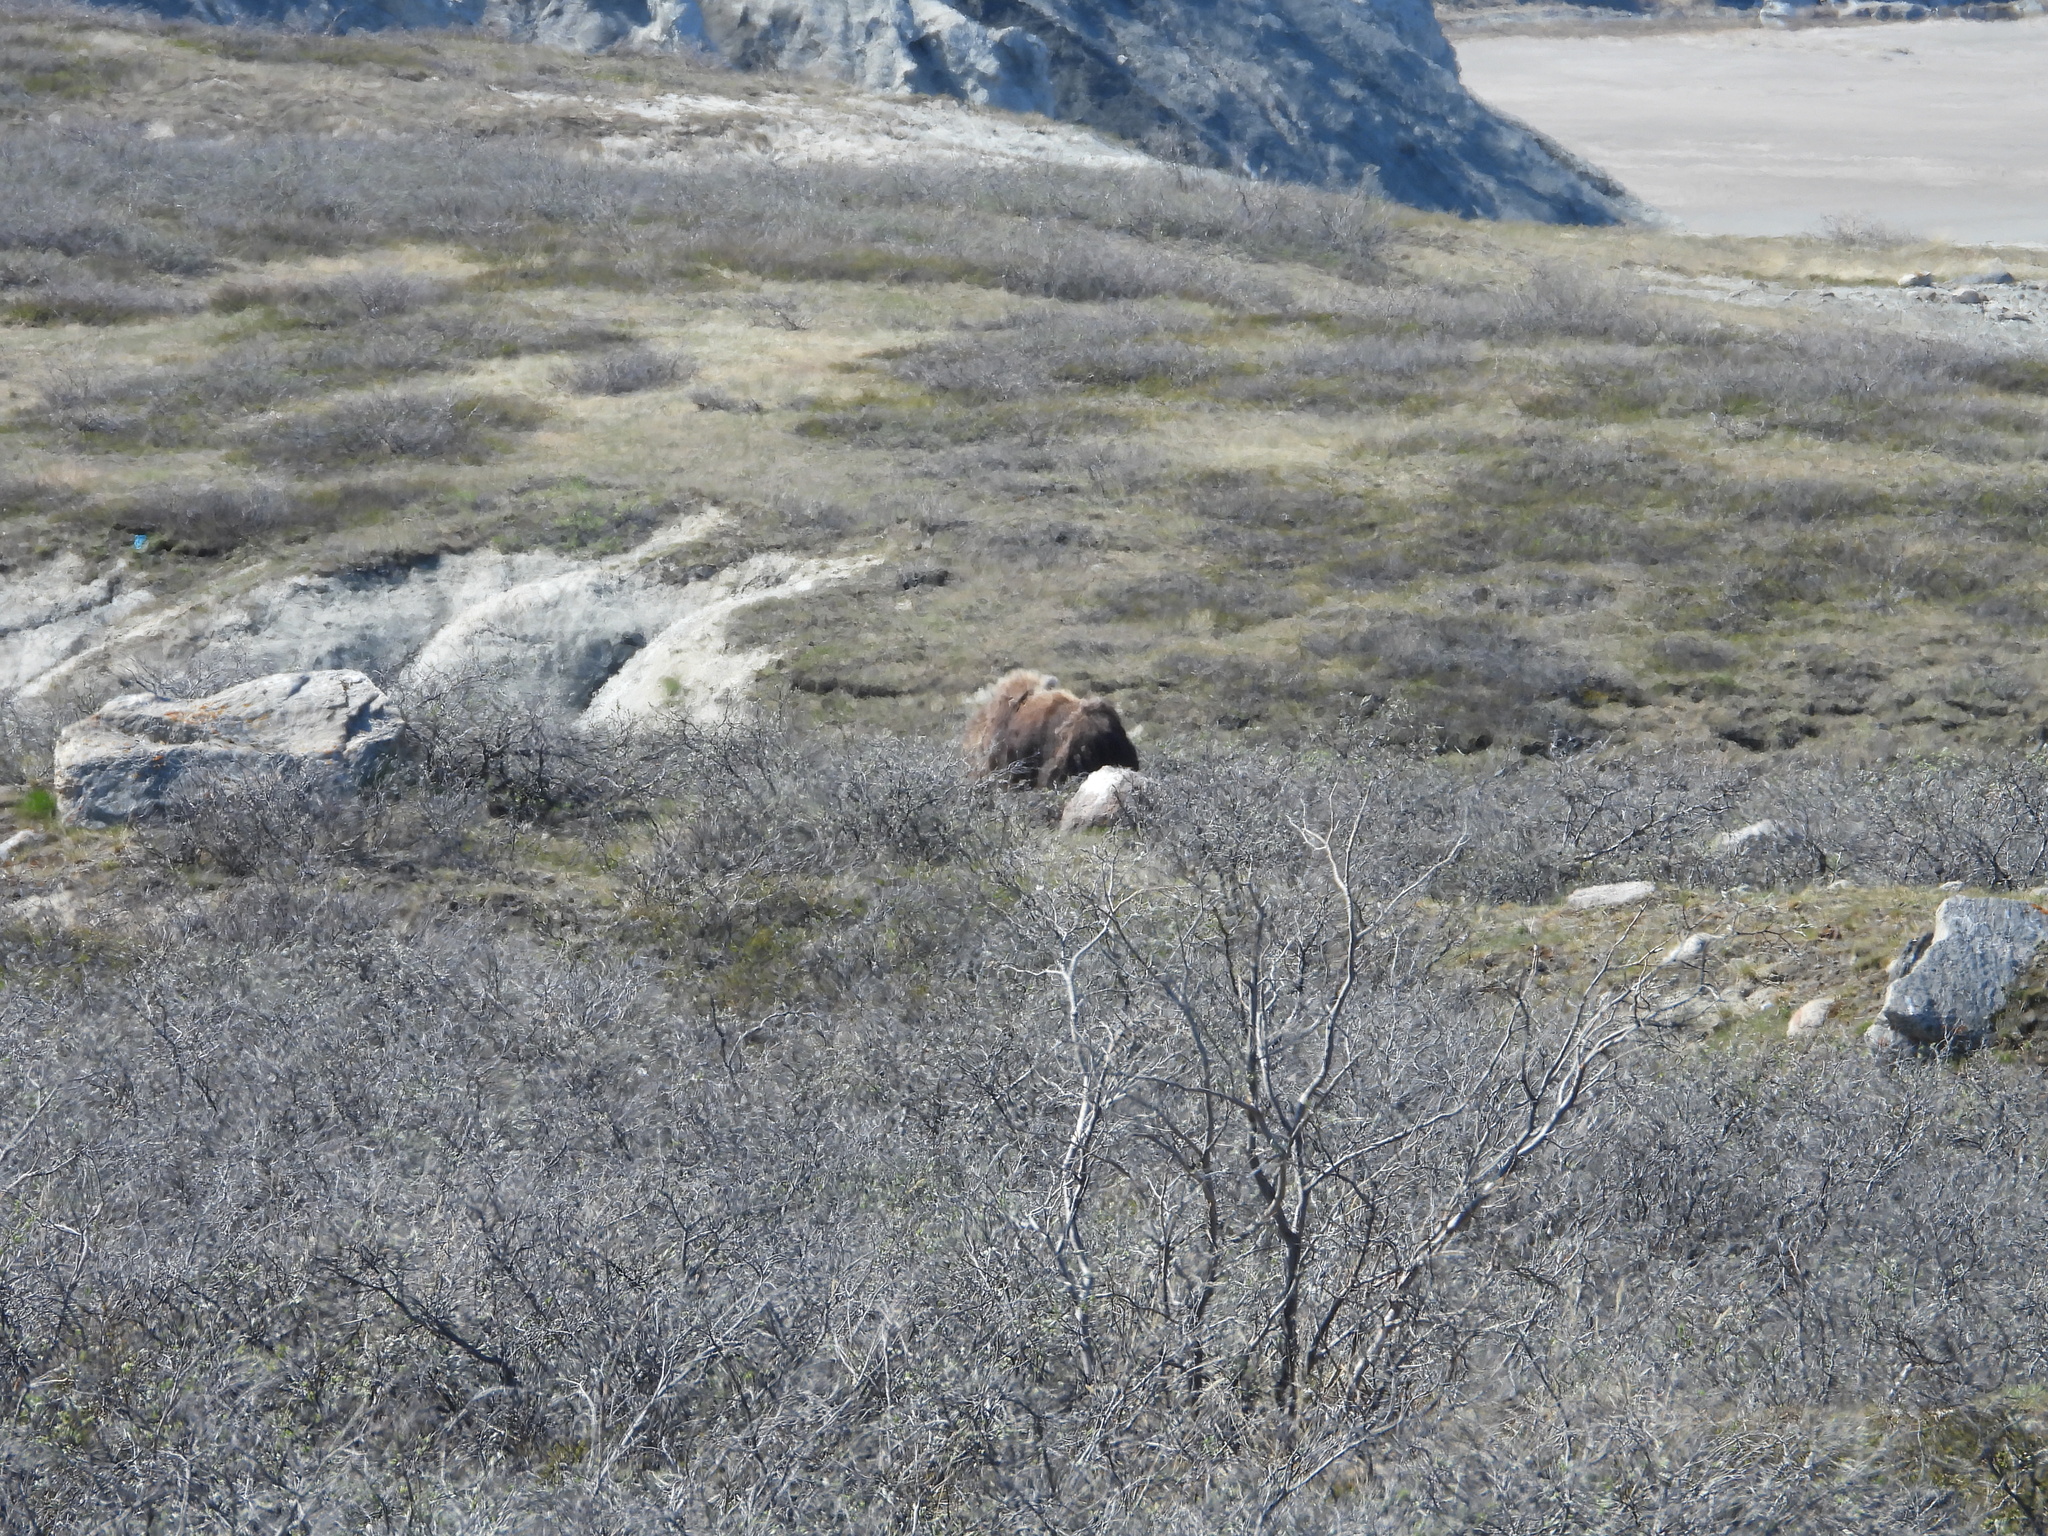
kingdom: Animalia
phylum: Chordata
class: Mammalia
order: Artiodactyla
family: Bovidae
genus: Ovibos
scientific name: Ovibos moschatus
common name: Muskox
